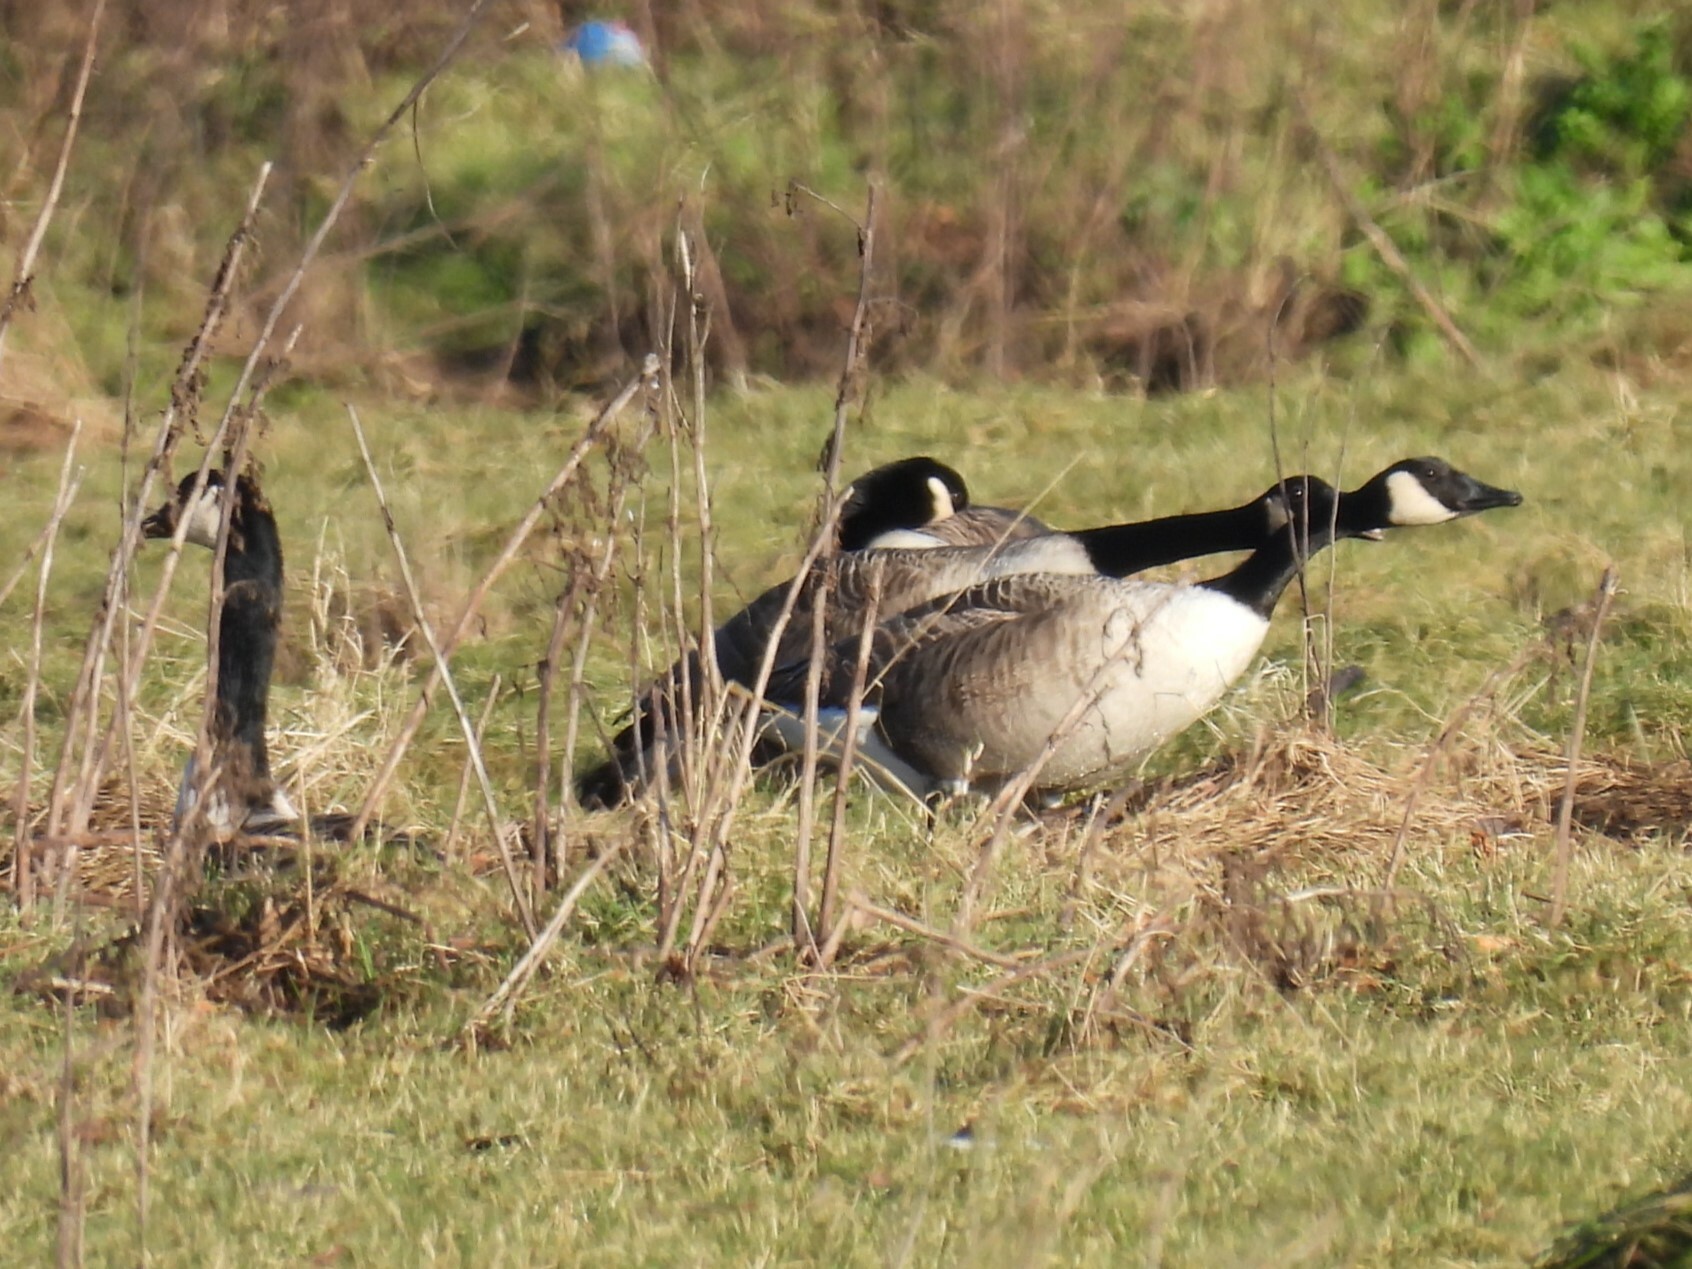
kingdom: Animalia
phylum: Chordata
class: Aves
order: Anseriformes
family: Anatidae
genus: Branta
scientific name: Branta canadensis
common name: Canada goose
